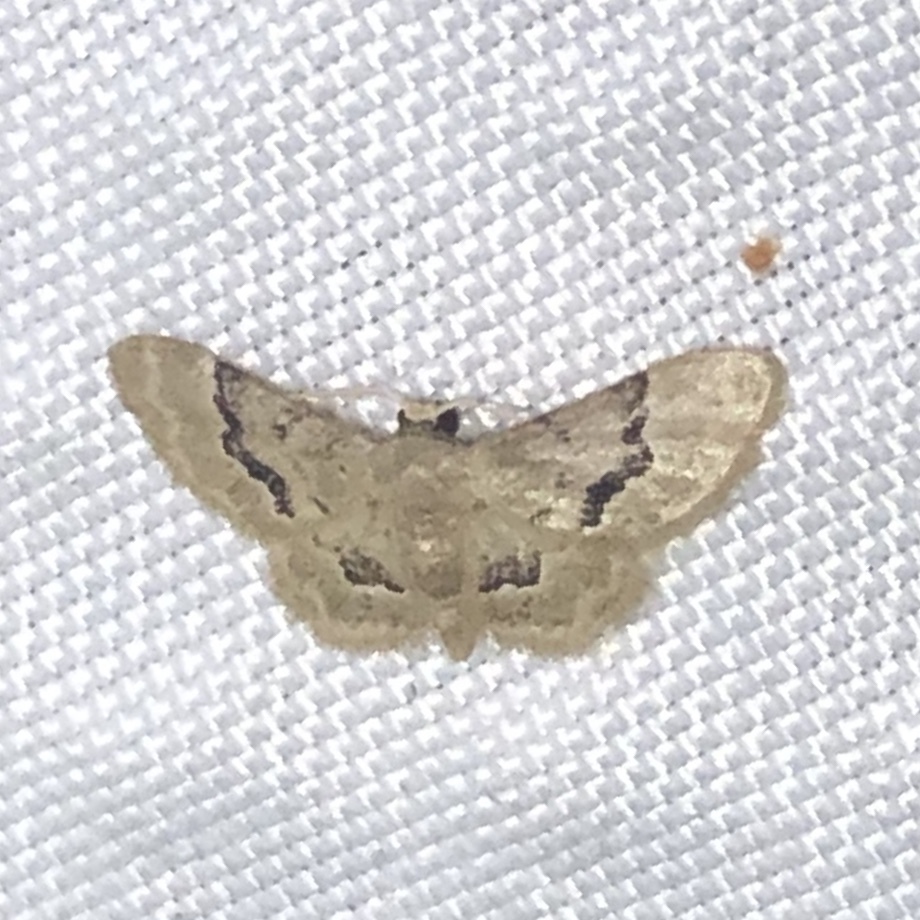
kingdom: Animalia
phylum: Arthropoda
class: Insecta
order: Lepidoptera
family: Geometridae
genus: Idaea
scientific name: Idaea vagula
